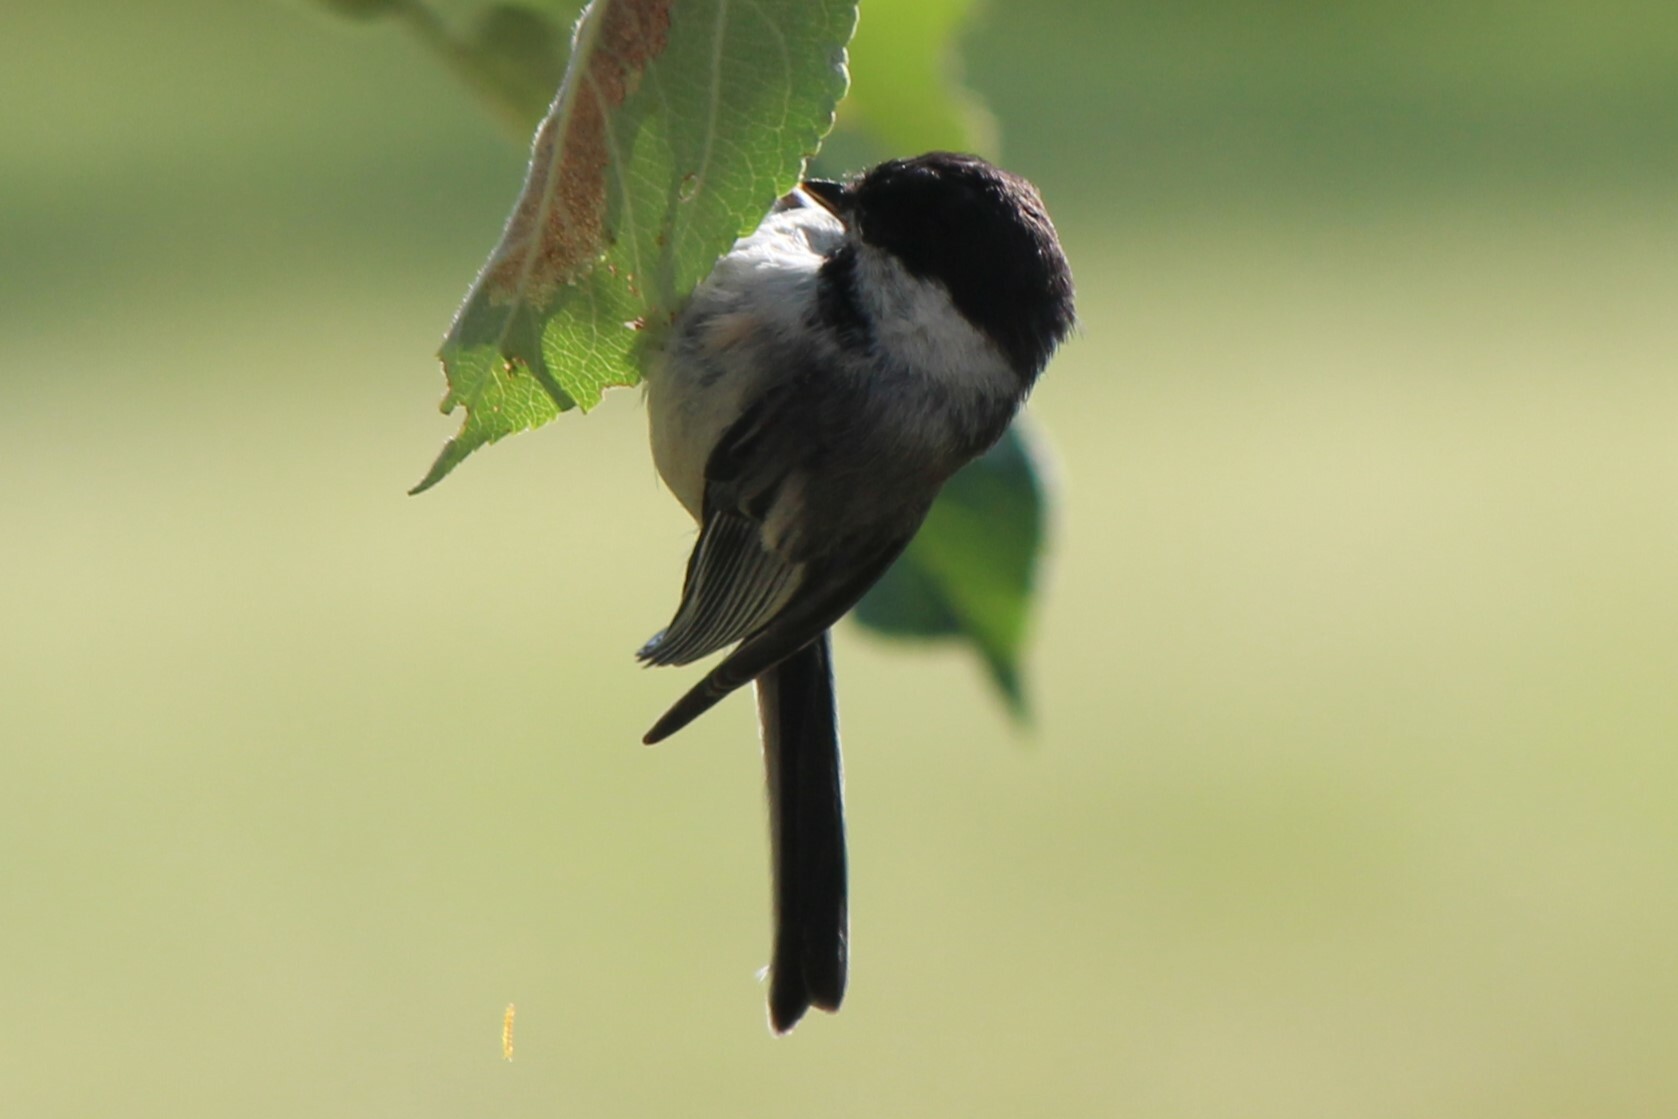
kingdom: Animalia
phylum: Chordata
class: Aves
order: Passeriformes
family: Paridae
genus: Poecile
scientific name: Poecile atricapillus
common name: Black-capped chickadee
